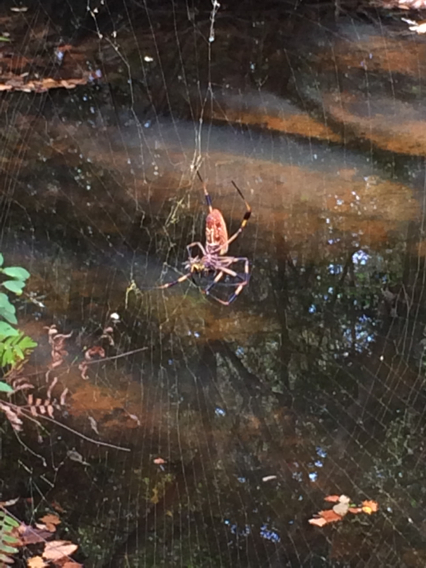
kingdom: Animalia
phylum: Arthropoda
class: Arachnida
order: Araneae
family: Araneidae
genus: Trichonephila
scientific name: Trichonephila clavipes
